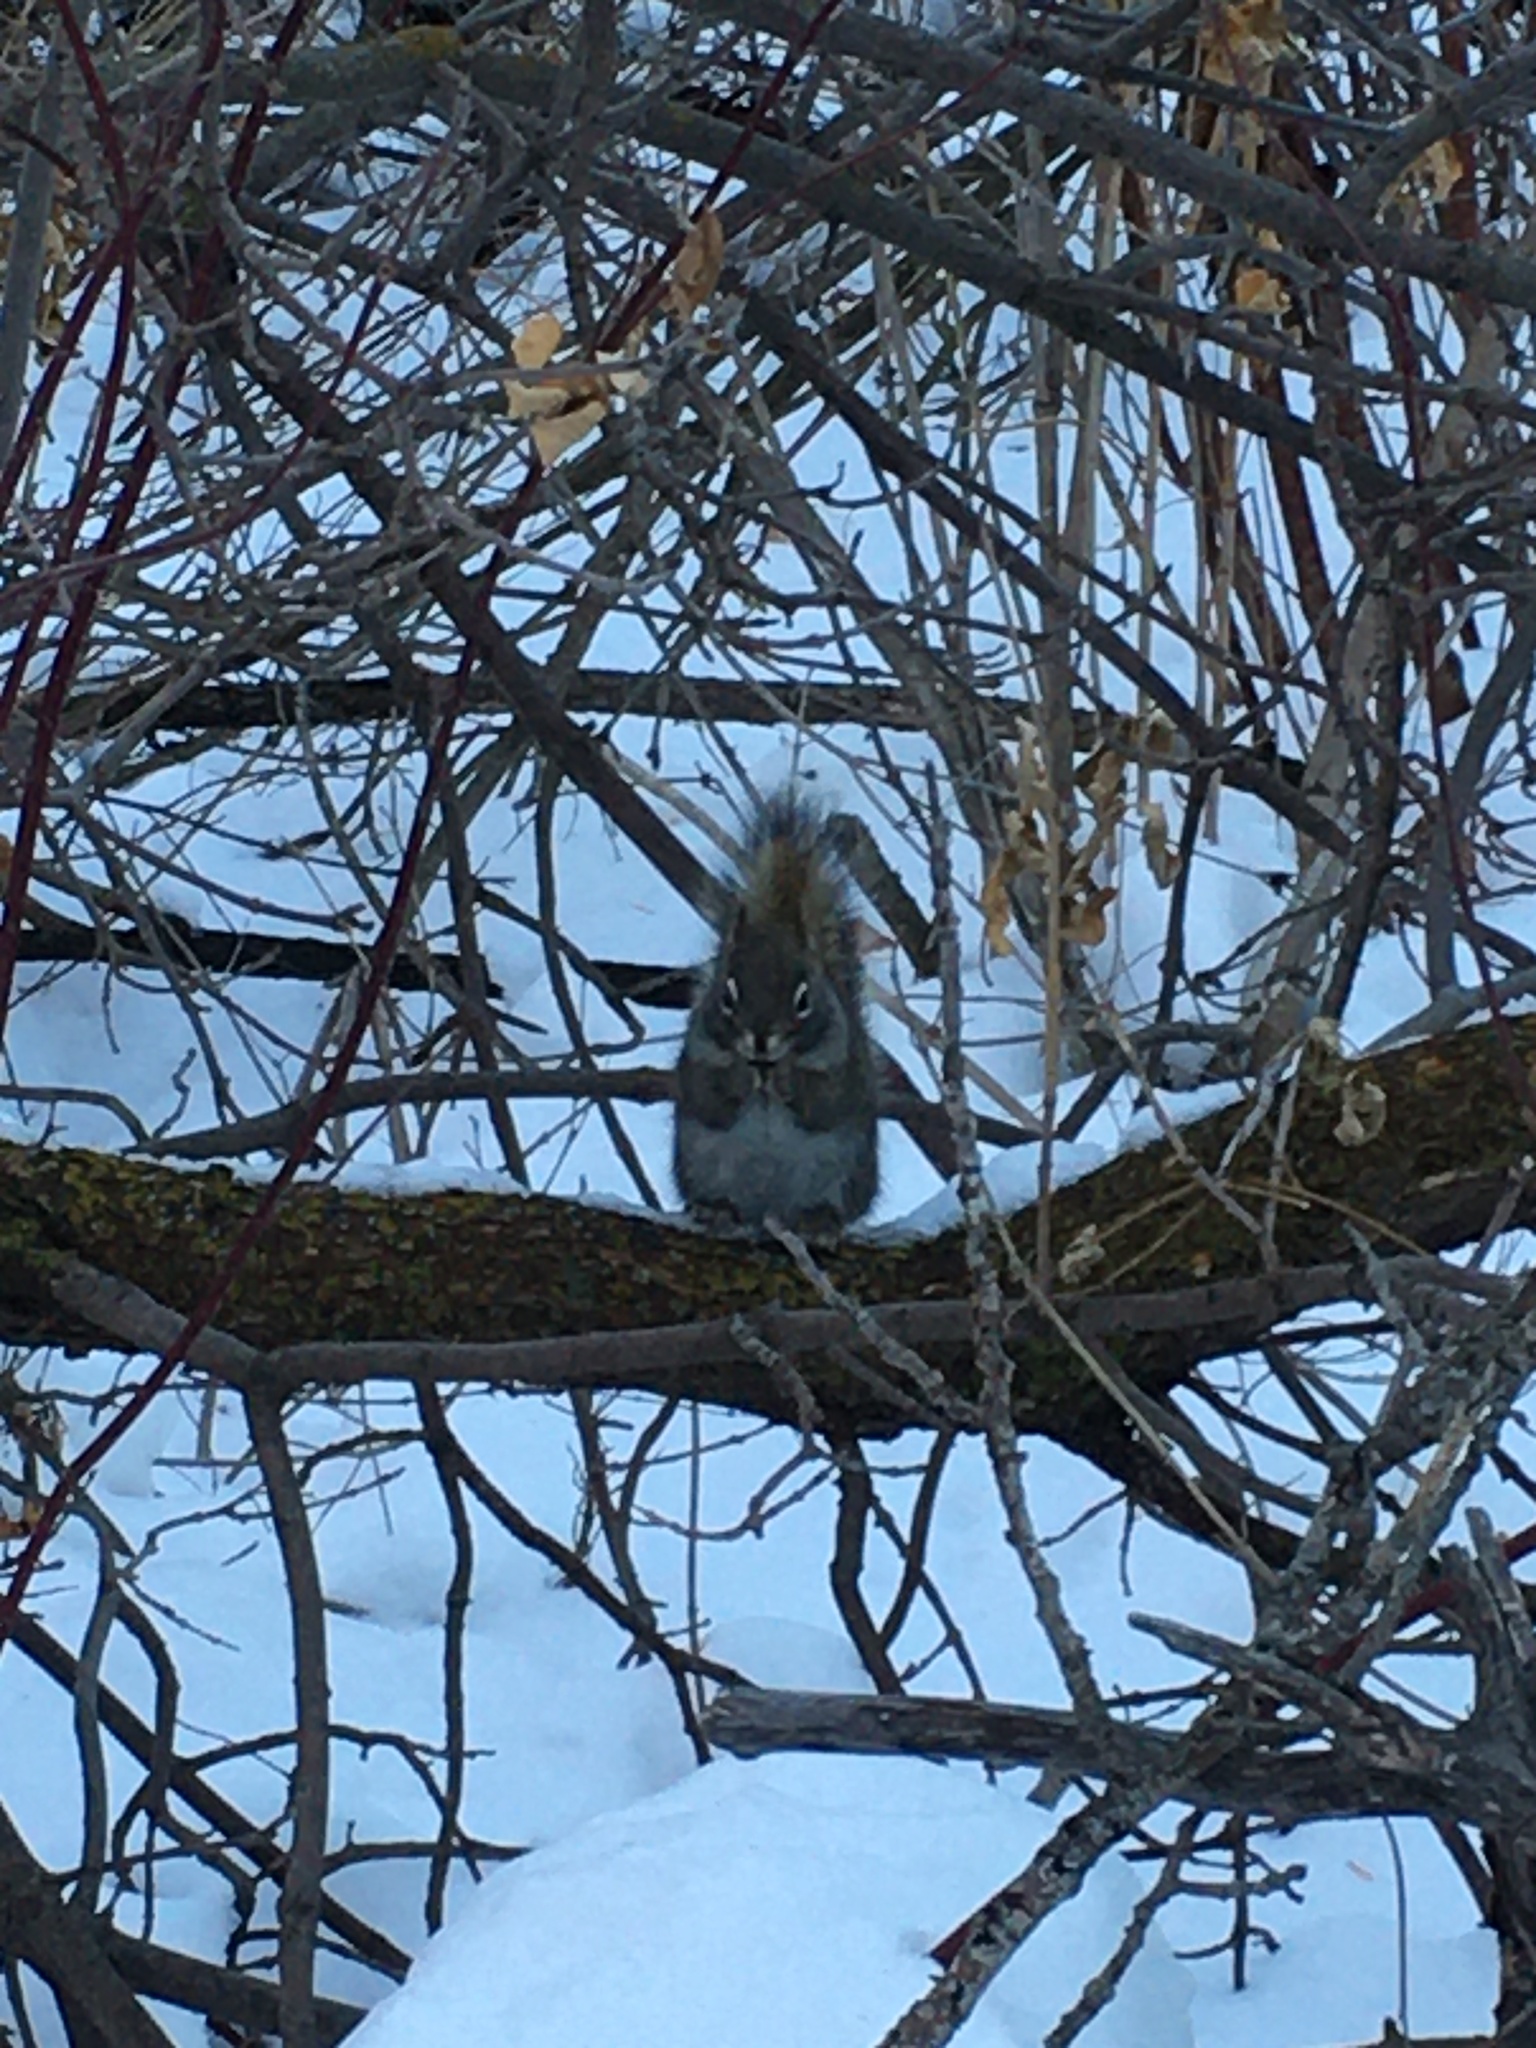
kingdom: Animalia
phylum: Chordata
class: Mammalia
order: Rodentia
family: Sciuridae
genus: Tamiasciurus
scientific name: Tamiasciurus hudsonicus
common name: Red squirrel
